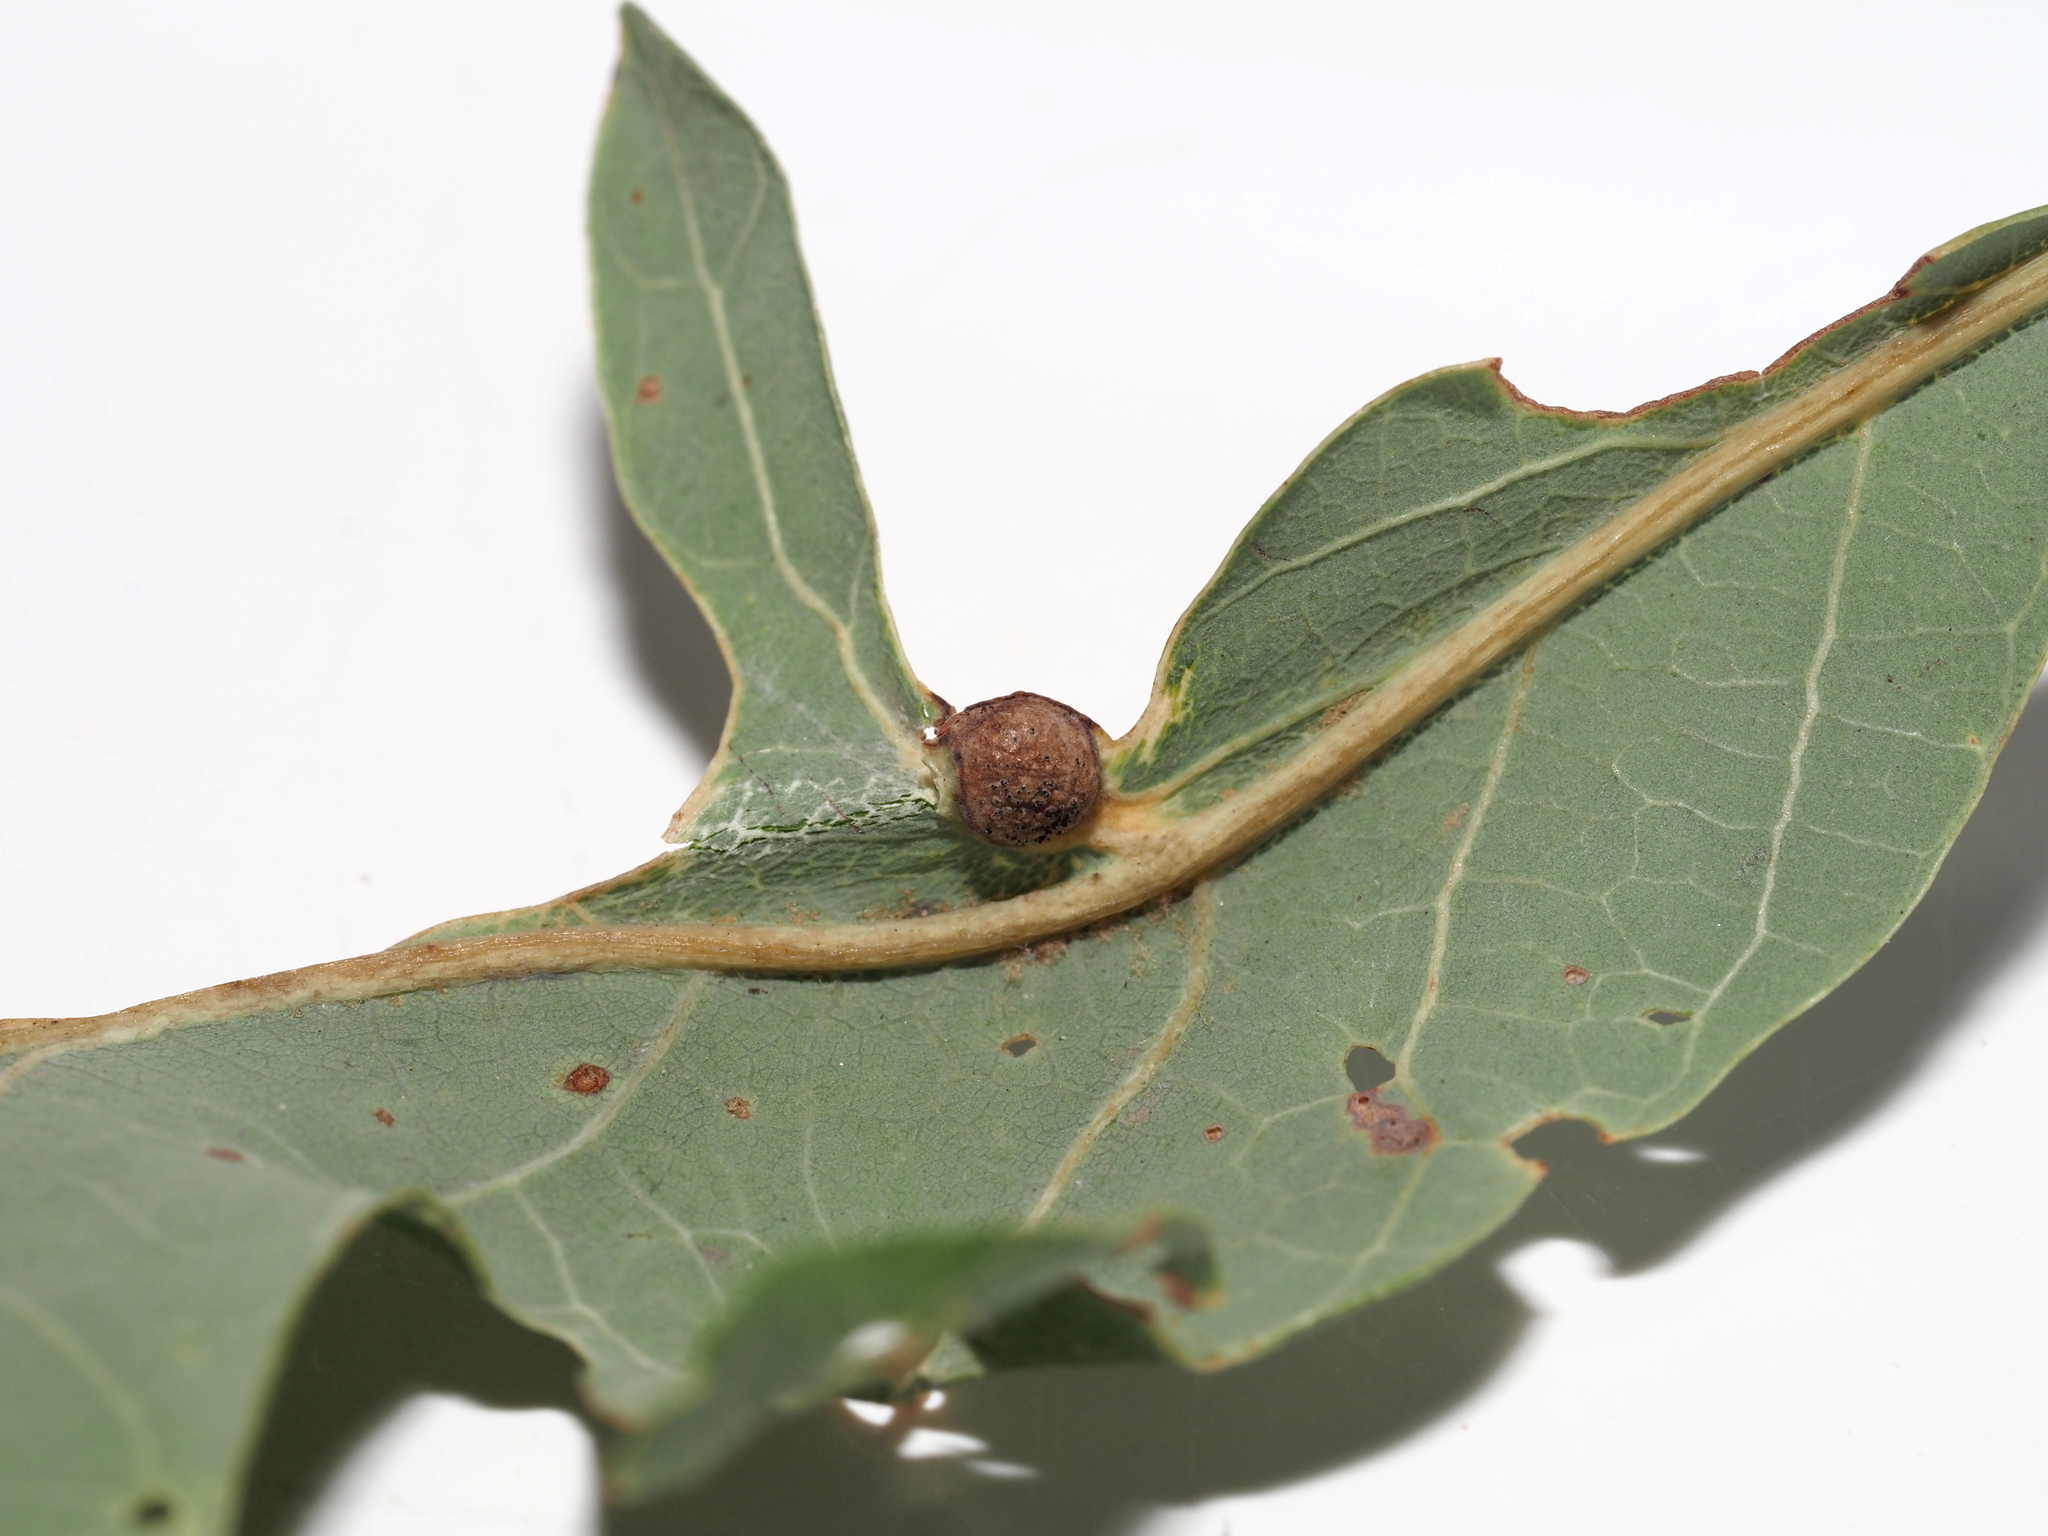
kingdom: Animalia
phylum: Arthropoda
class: Insecta
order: Hymenoptera
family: Cynipidae
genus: Andricus
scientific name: Andricus
